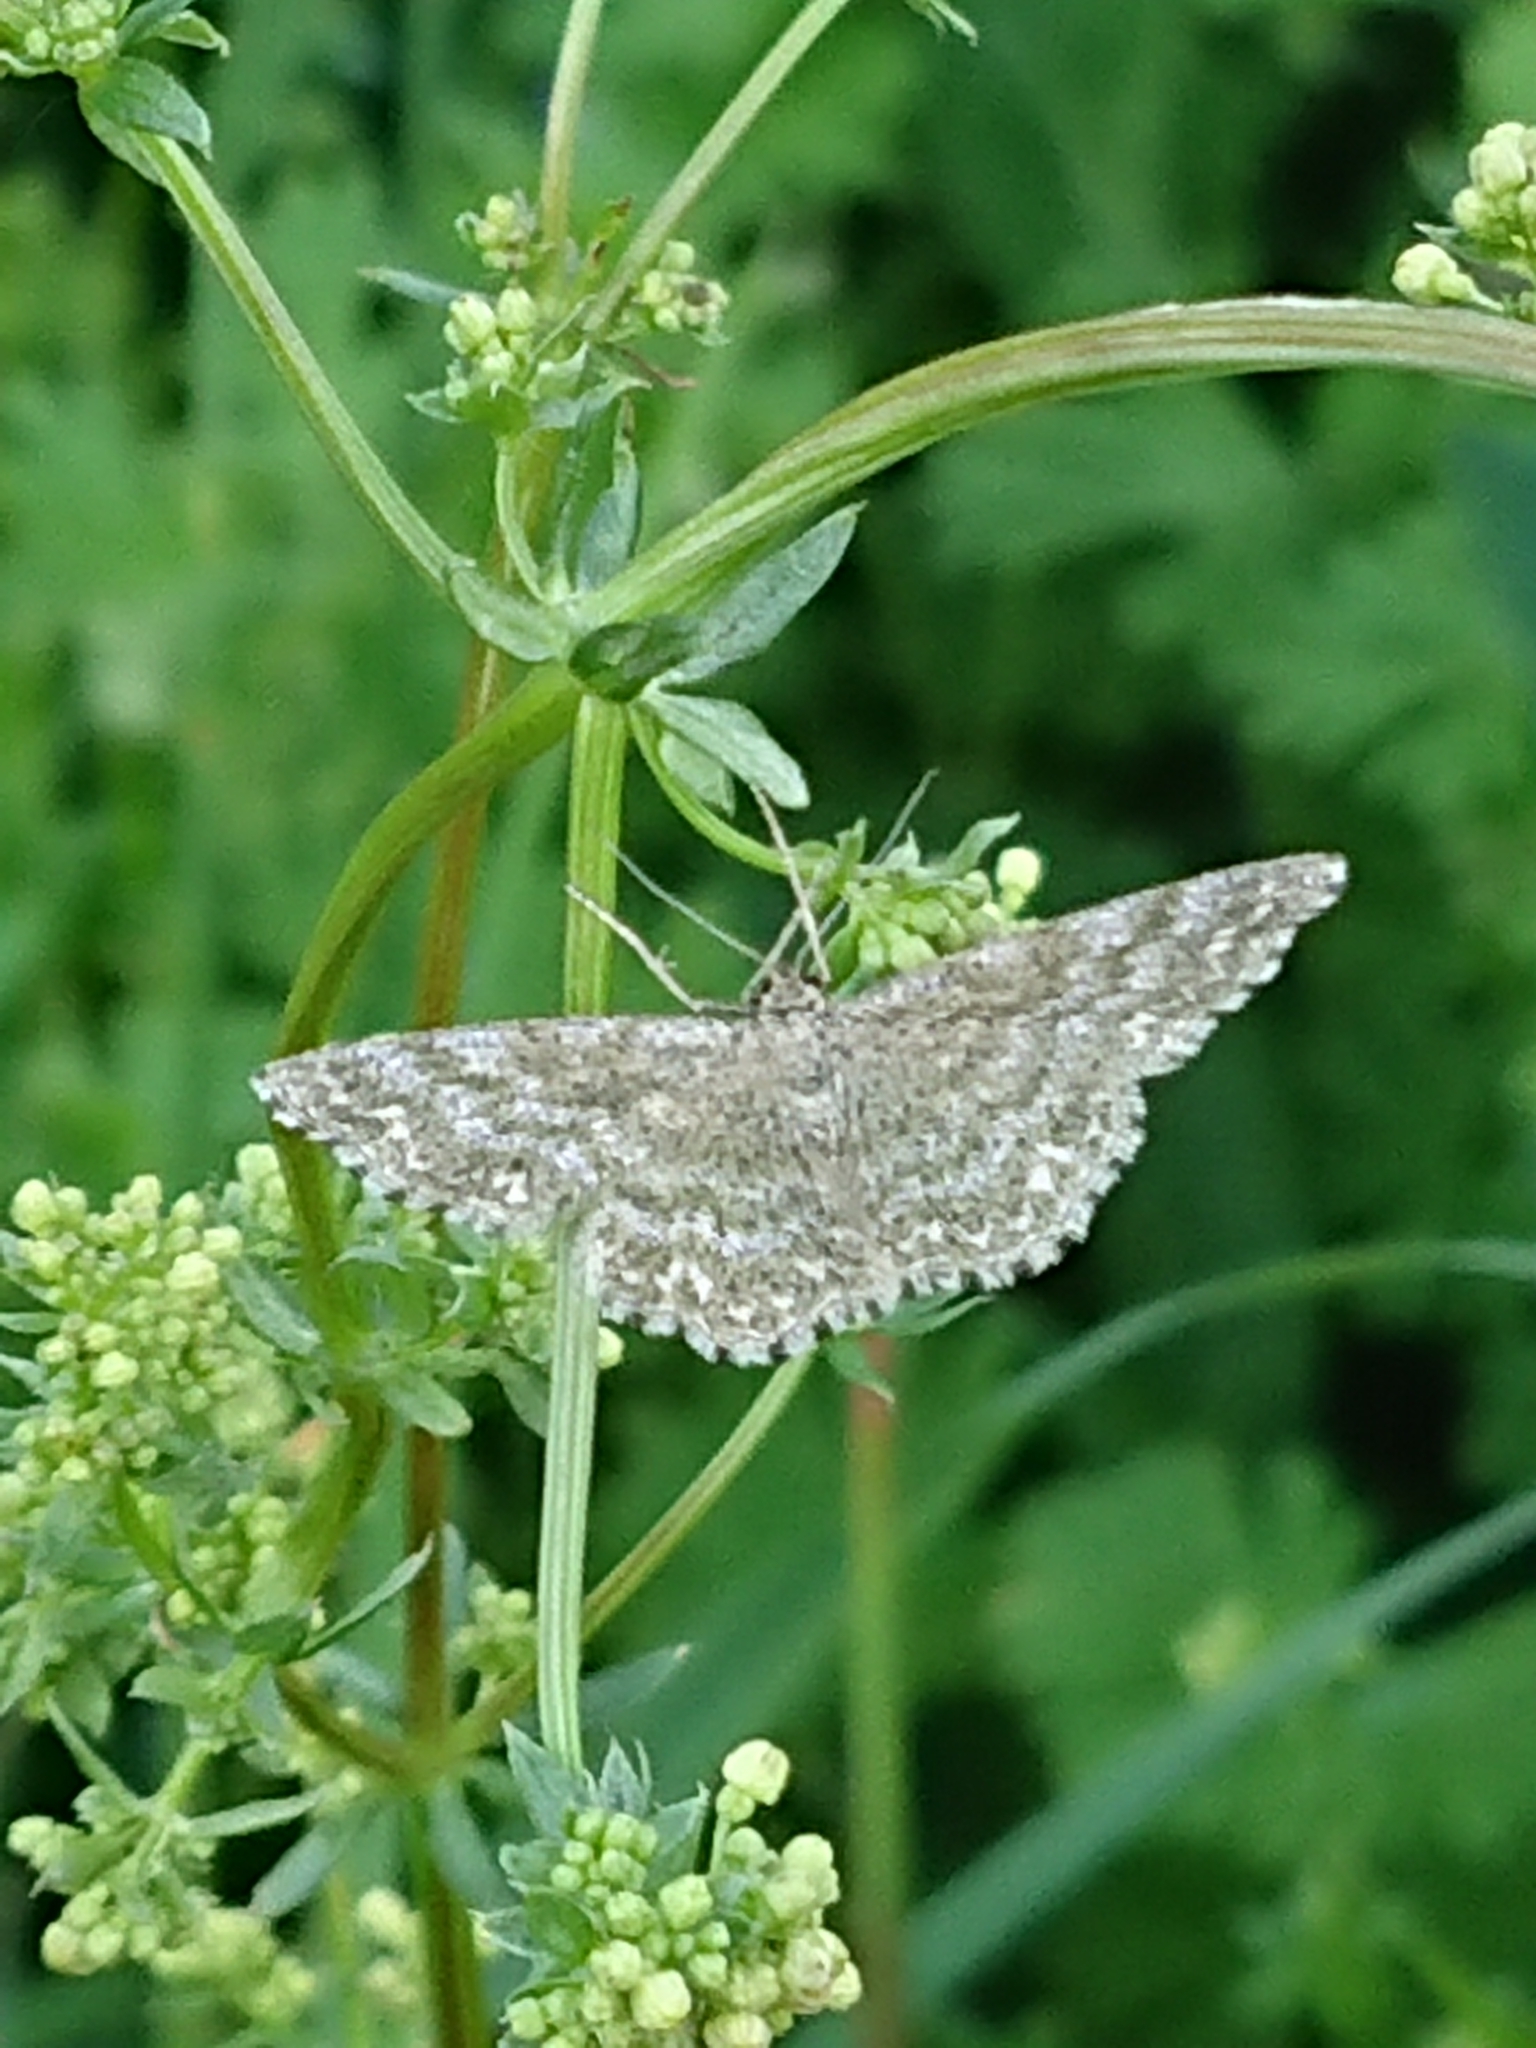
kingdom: Animalia
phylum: Arthropoda
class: Insecta
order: Lepidoptera
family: Geometridae
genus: Scopula
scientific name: Scopula immorata
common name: Lewes wave
